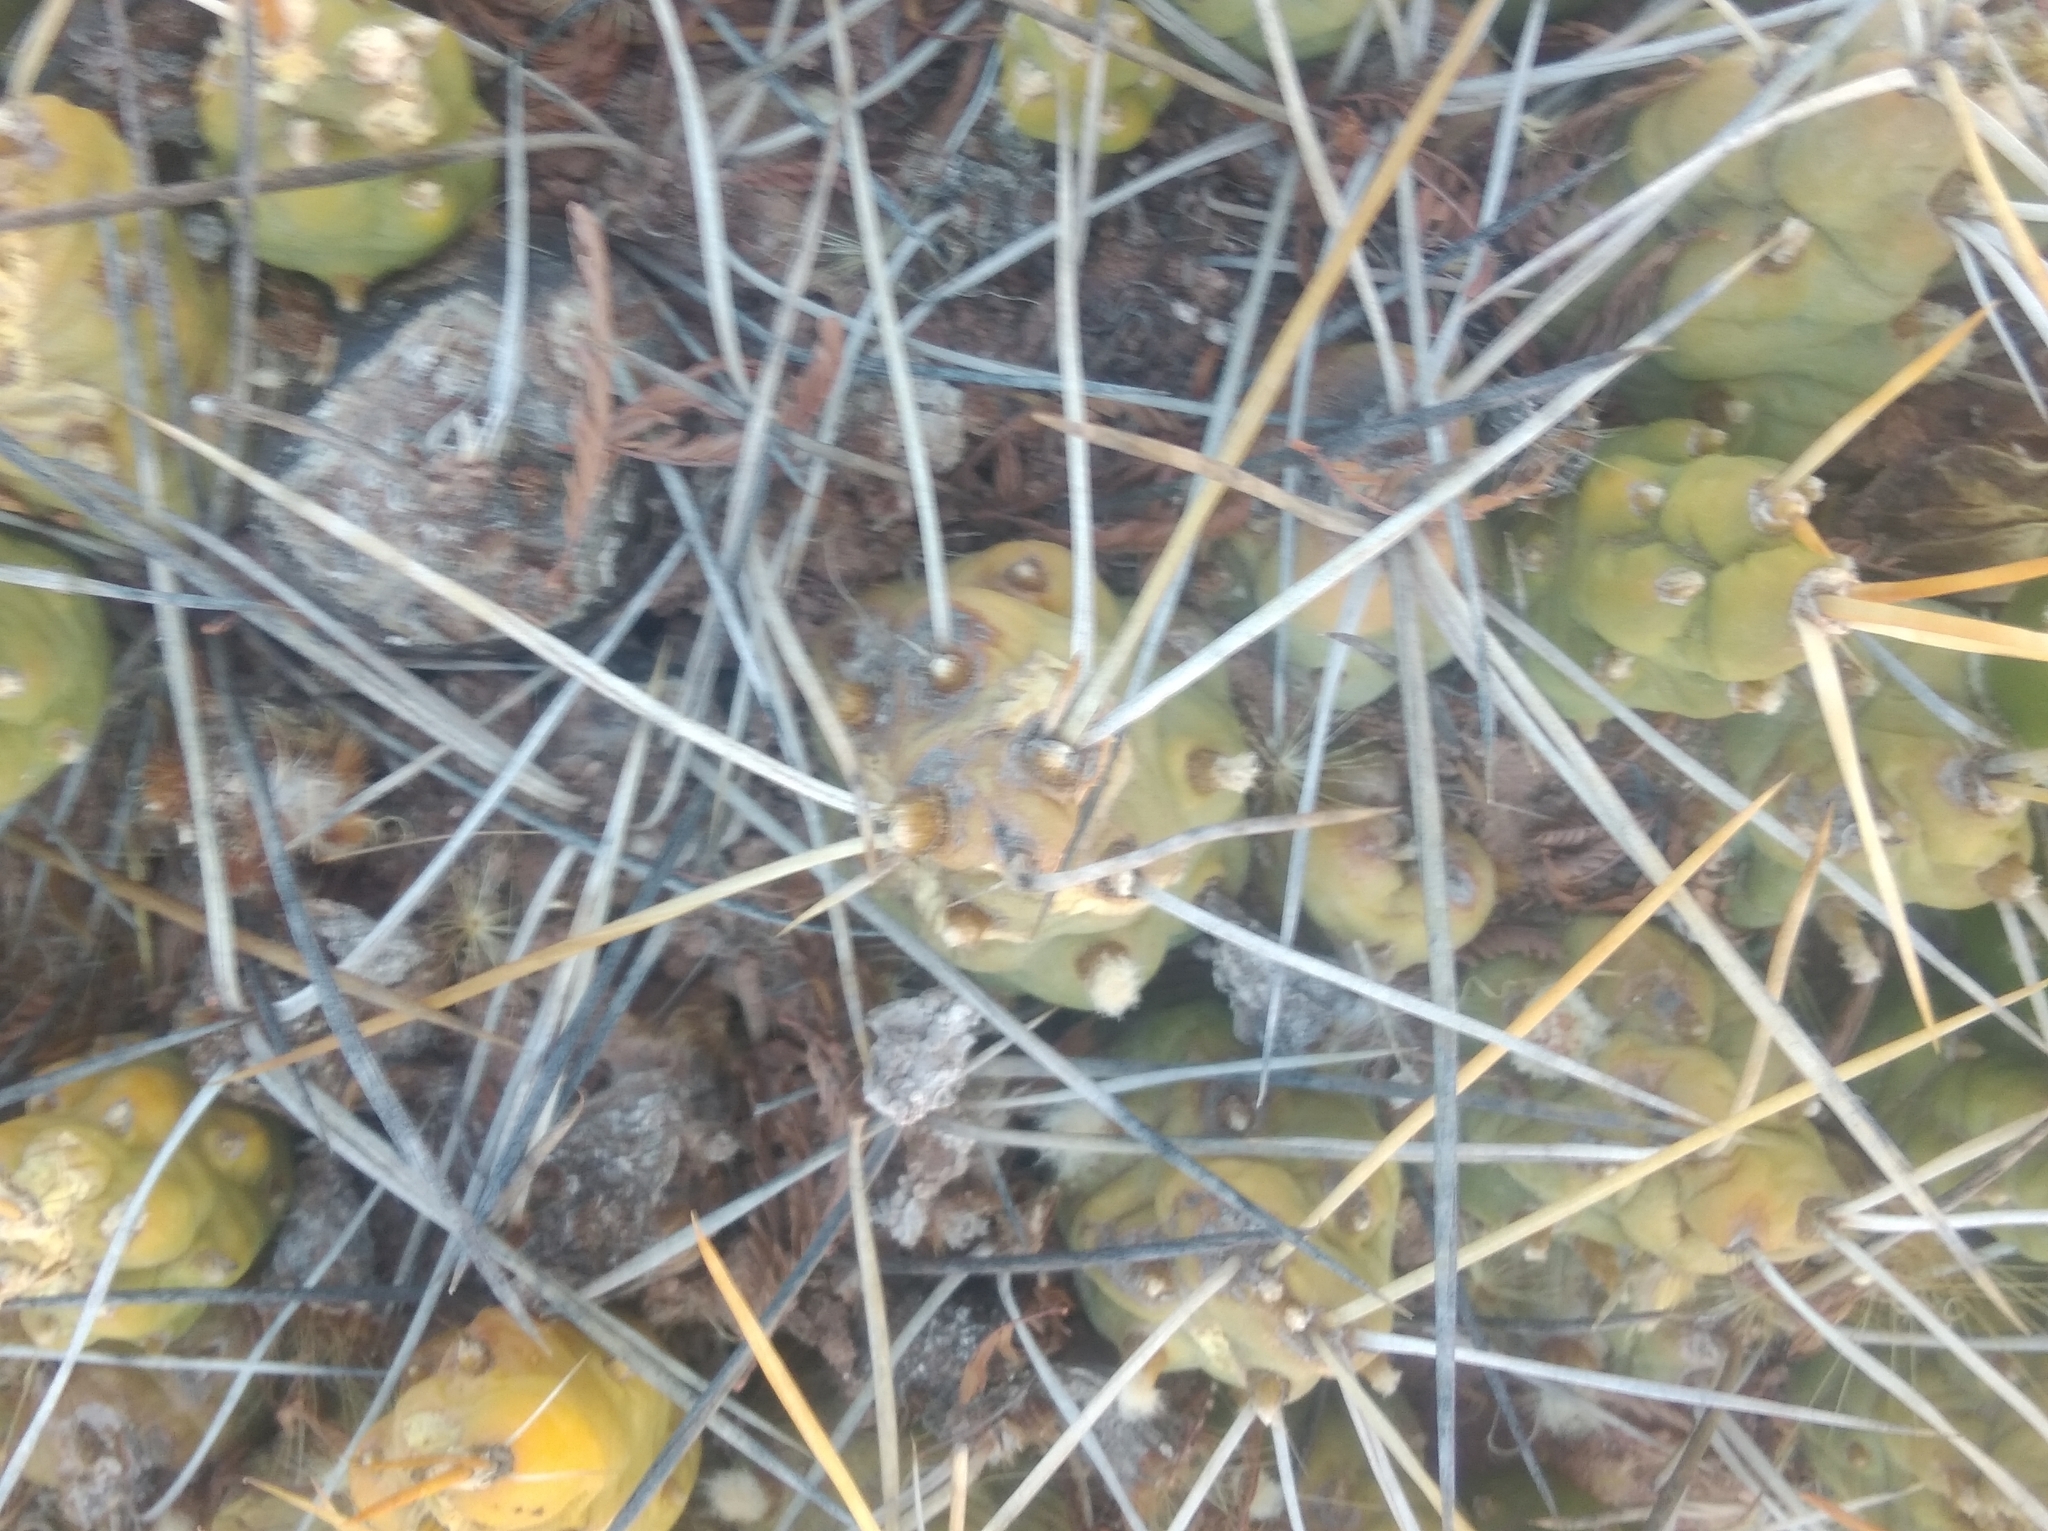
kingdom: Plantae
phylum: Tracheophyta
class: Magnoliopsida
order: Caryophyllales
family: Cactaceae
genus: Cumulopuntia
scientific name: Cumulopuntia boliviana
